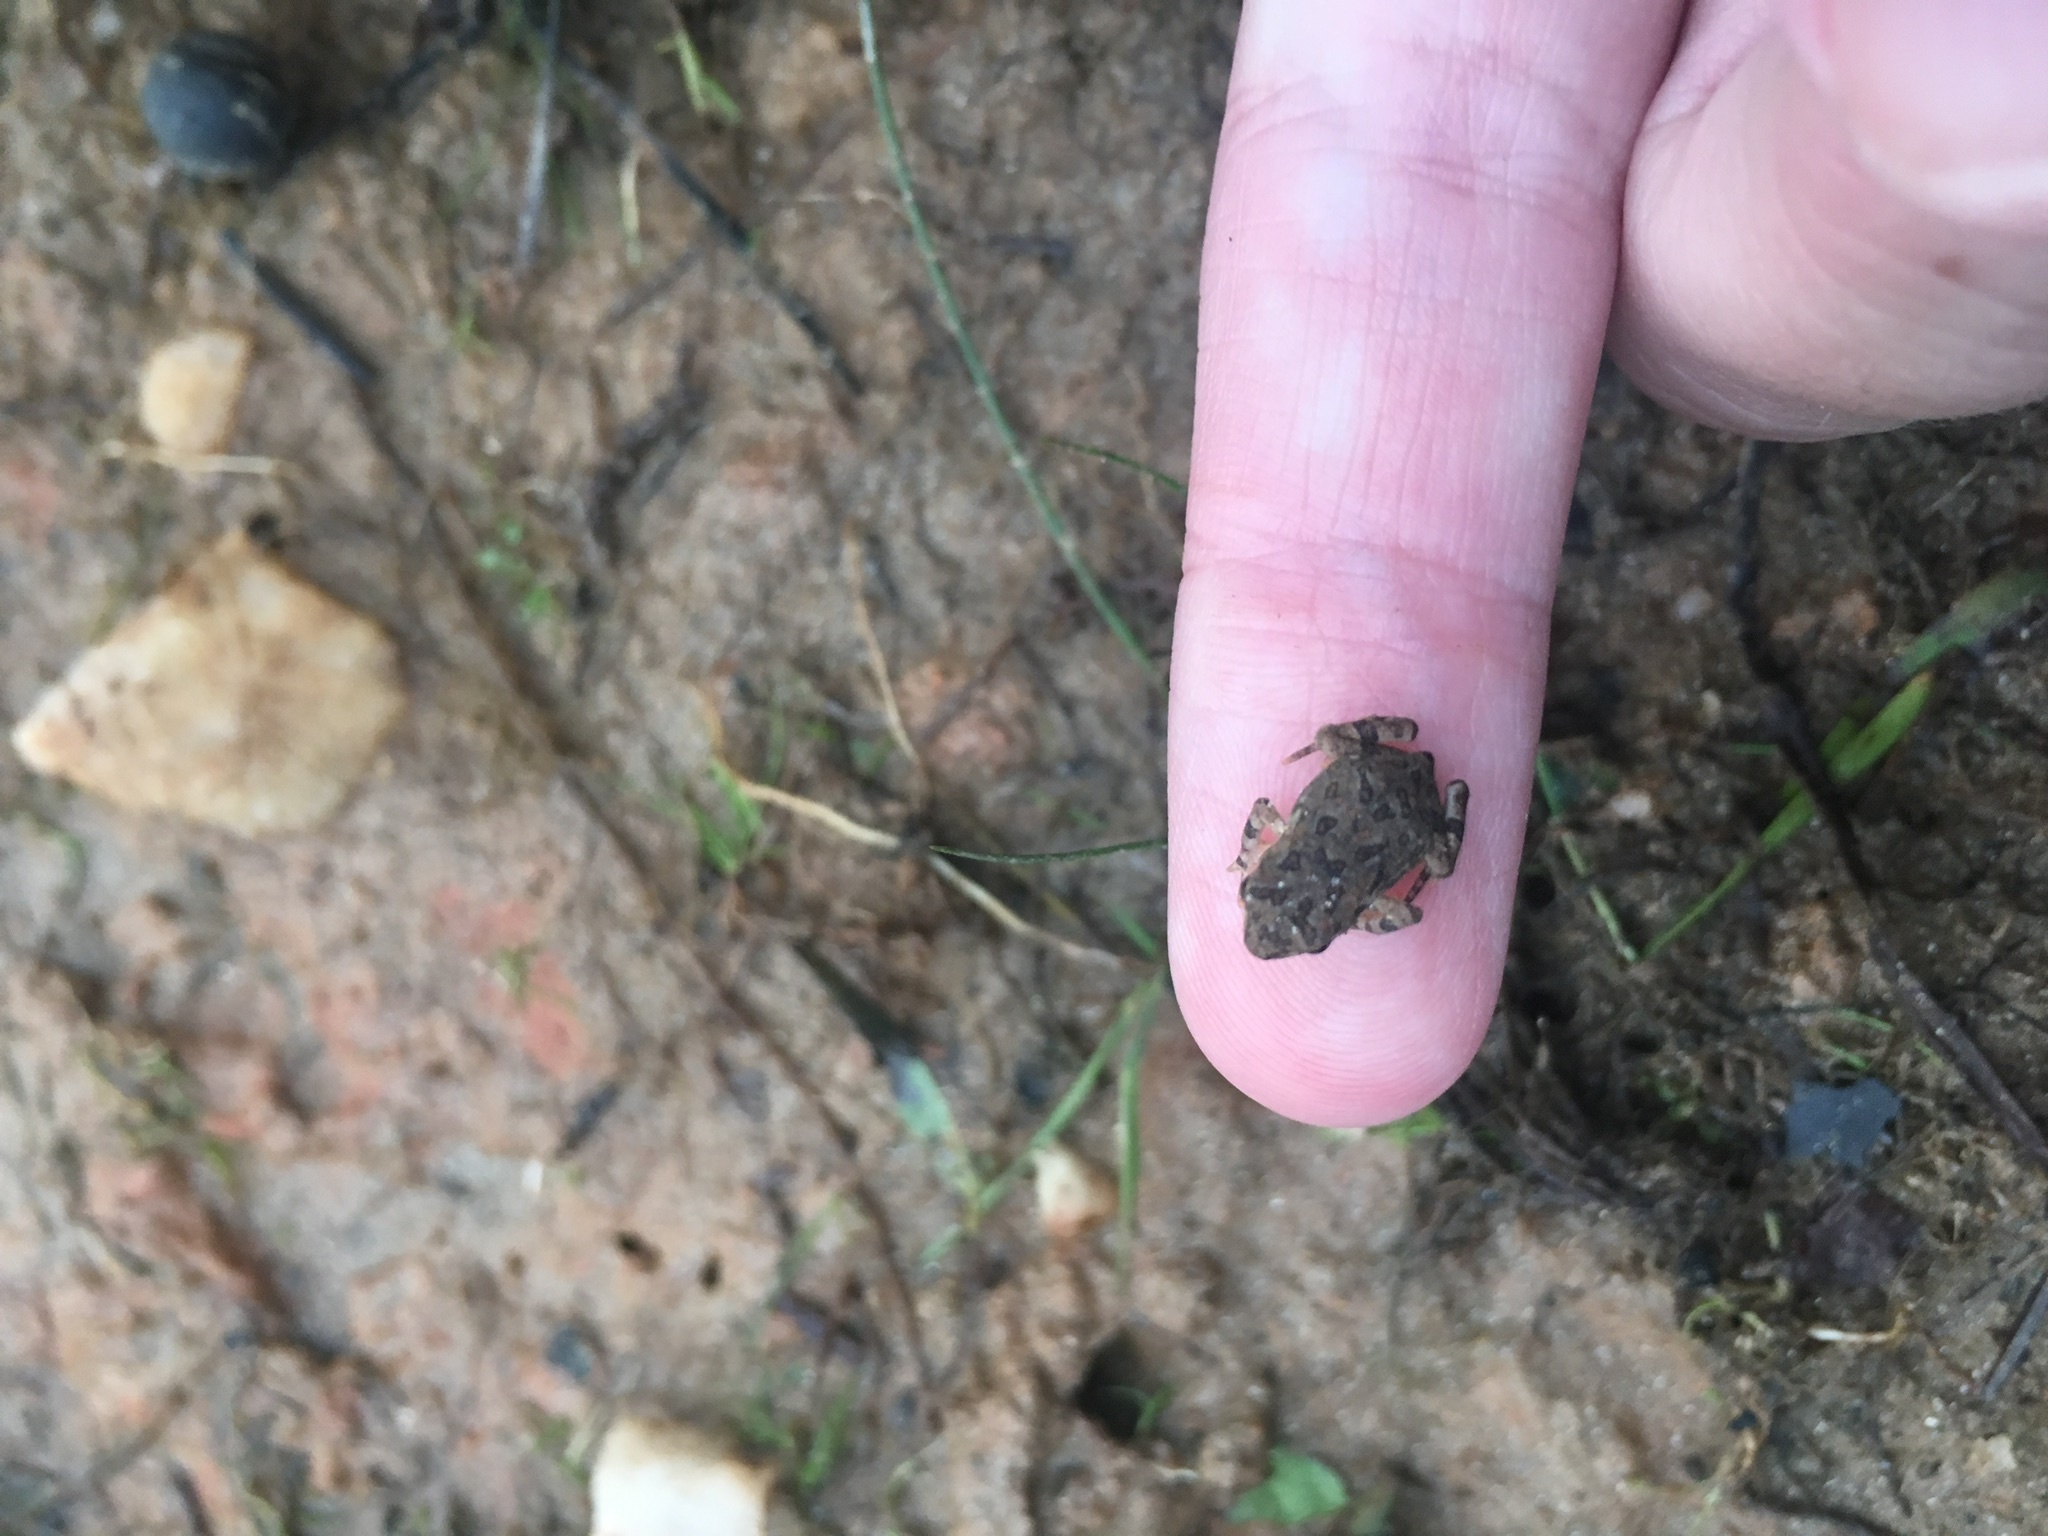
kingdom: Animalia
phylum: Chordata
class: Amphibia
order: Anura
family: Bufonidae
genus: Anaxyrus
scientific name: Anaxyrus americanus
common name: American toad
